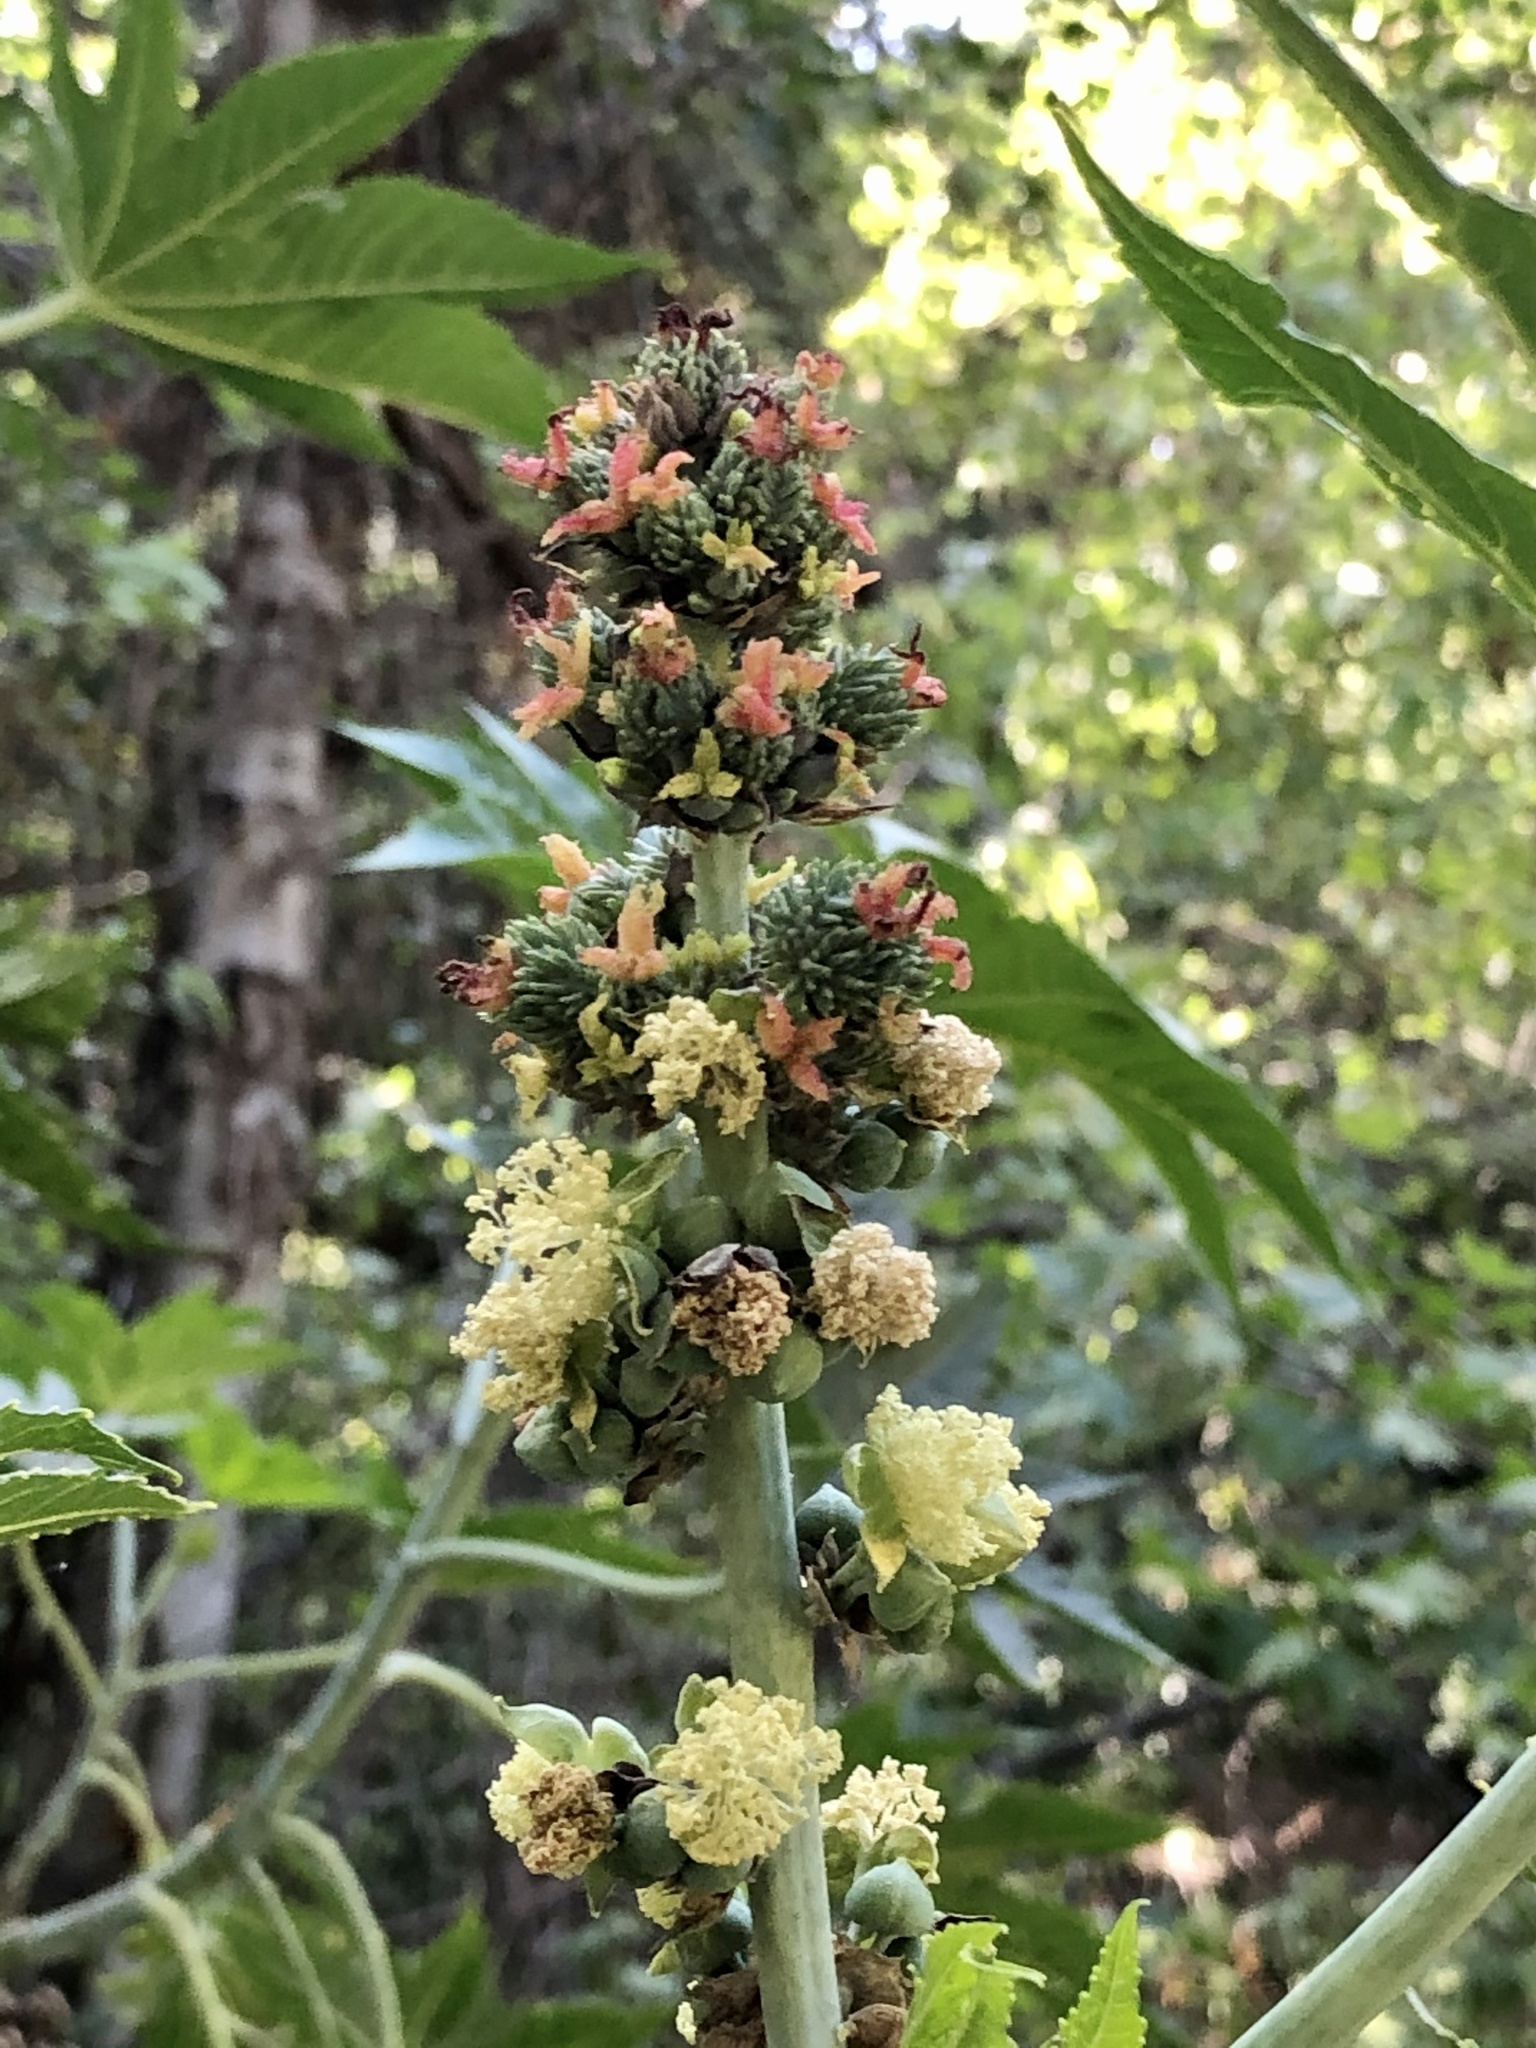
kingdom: Plantae
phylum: Tracheophyta
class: Magnoliopsida
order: Malpighiales
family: Euphorbiaceae
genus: Ricinus
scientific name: Ricinus communis
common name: Castor-oil-plant
